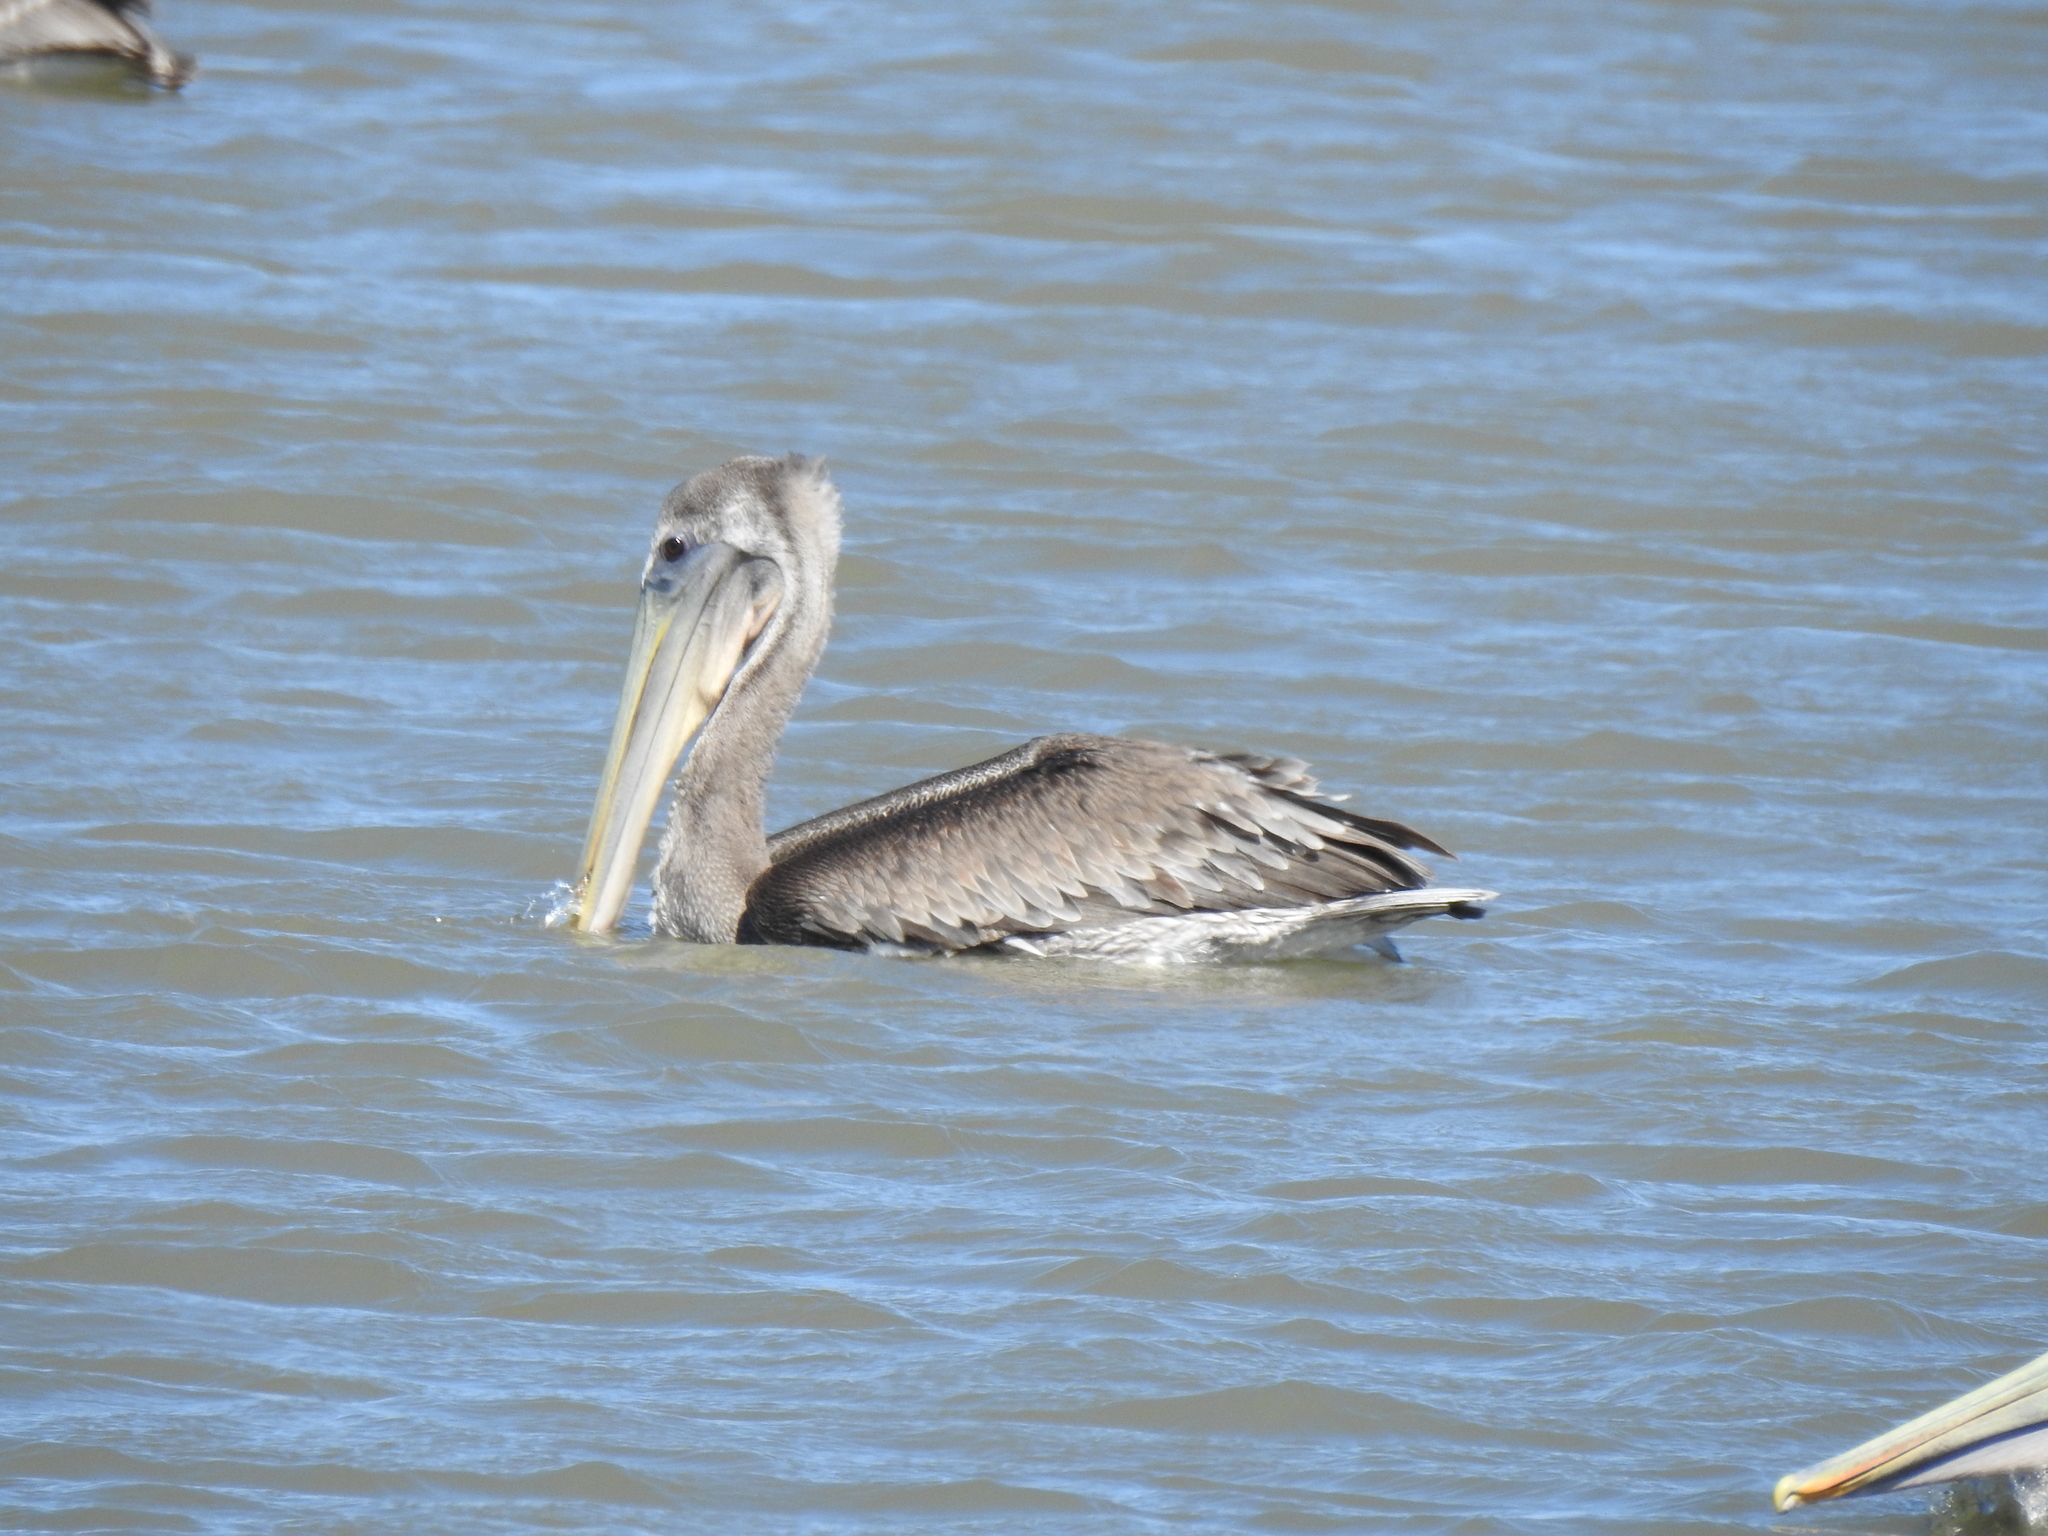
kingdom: Animalia
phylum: Chordata
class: Aves
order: Pelecaniformes
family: Pelecanidae
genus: Pelecanus
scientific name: Pelecanus occidentalis
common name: Brown pelican
